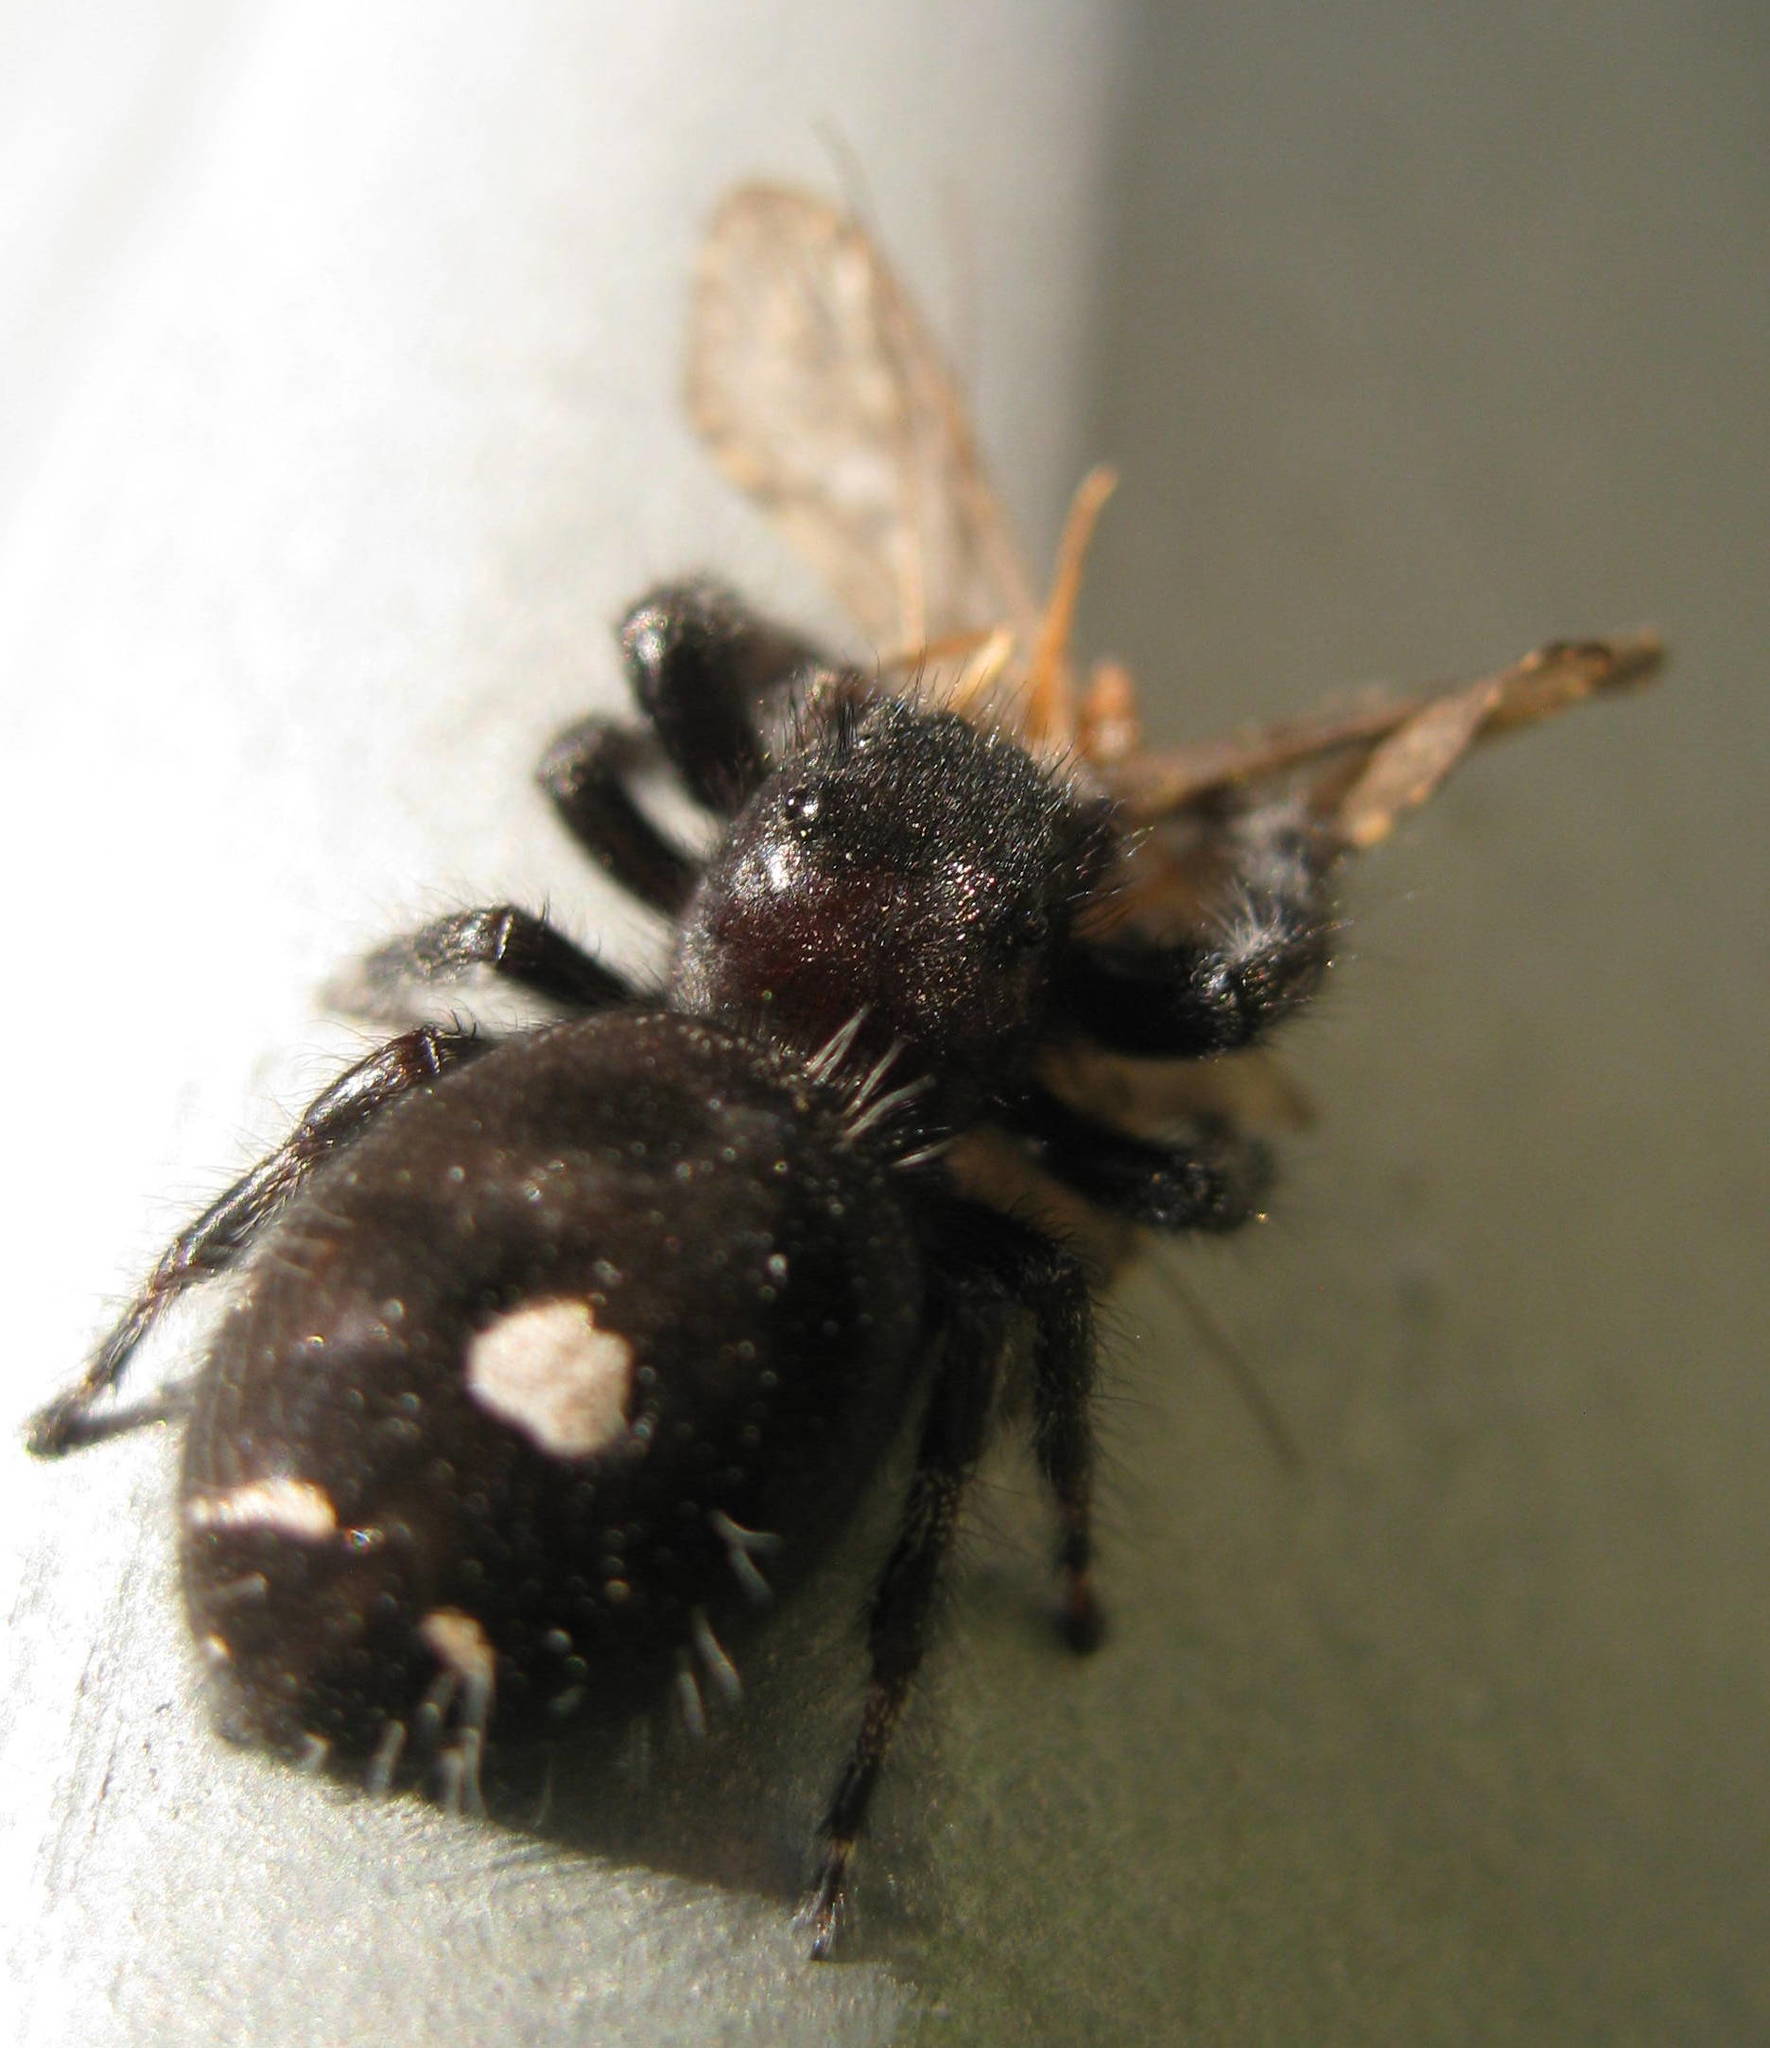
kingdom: Animalia
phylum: Arthropoda
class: Arachnida
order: Araneae
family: Salticidae
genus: Phidippus
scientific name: Phidippus audax
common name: Bold jumper
